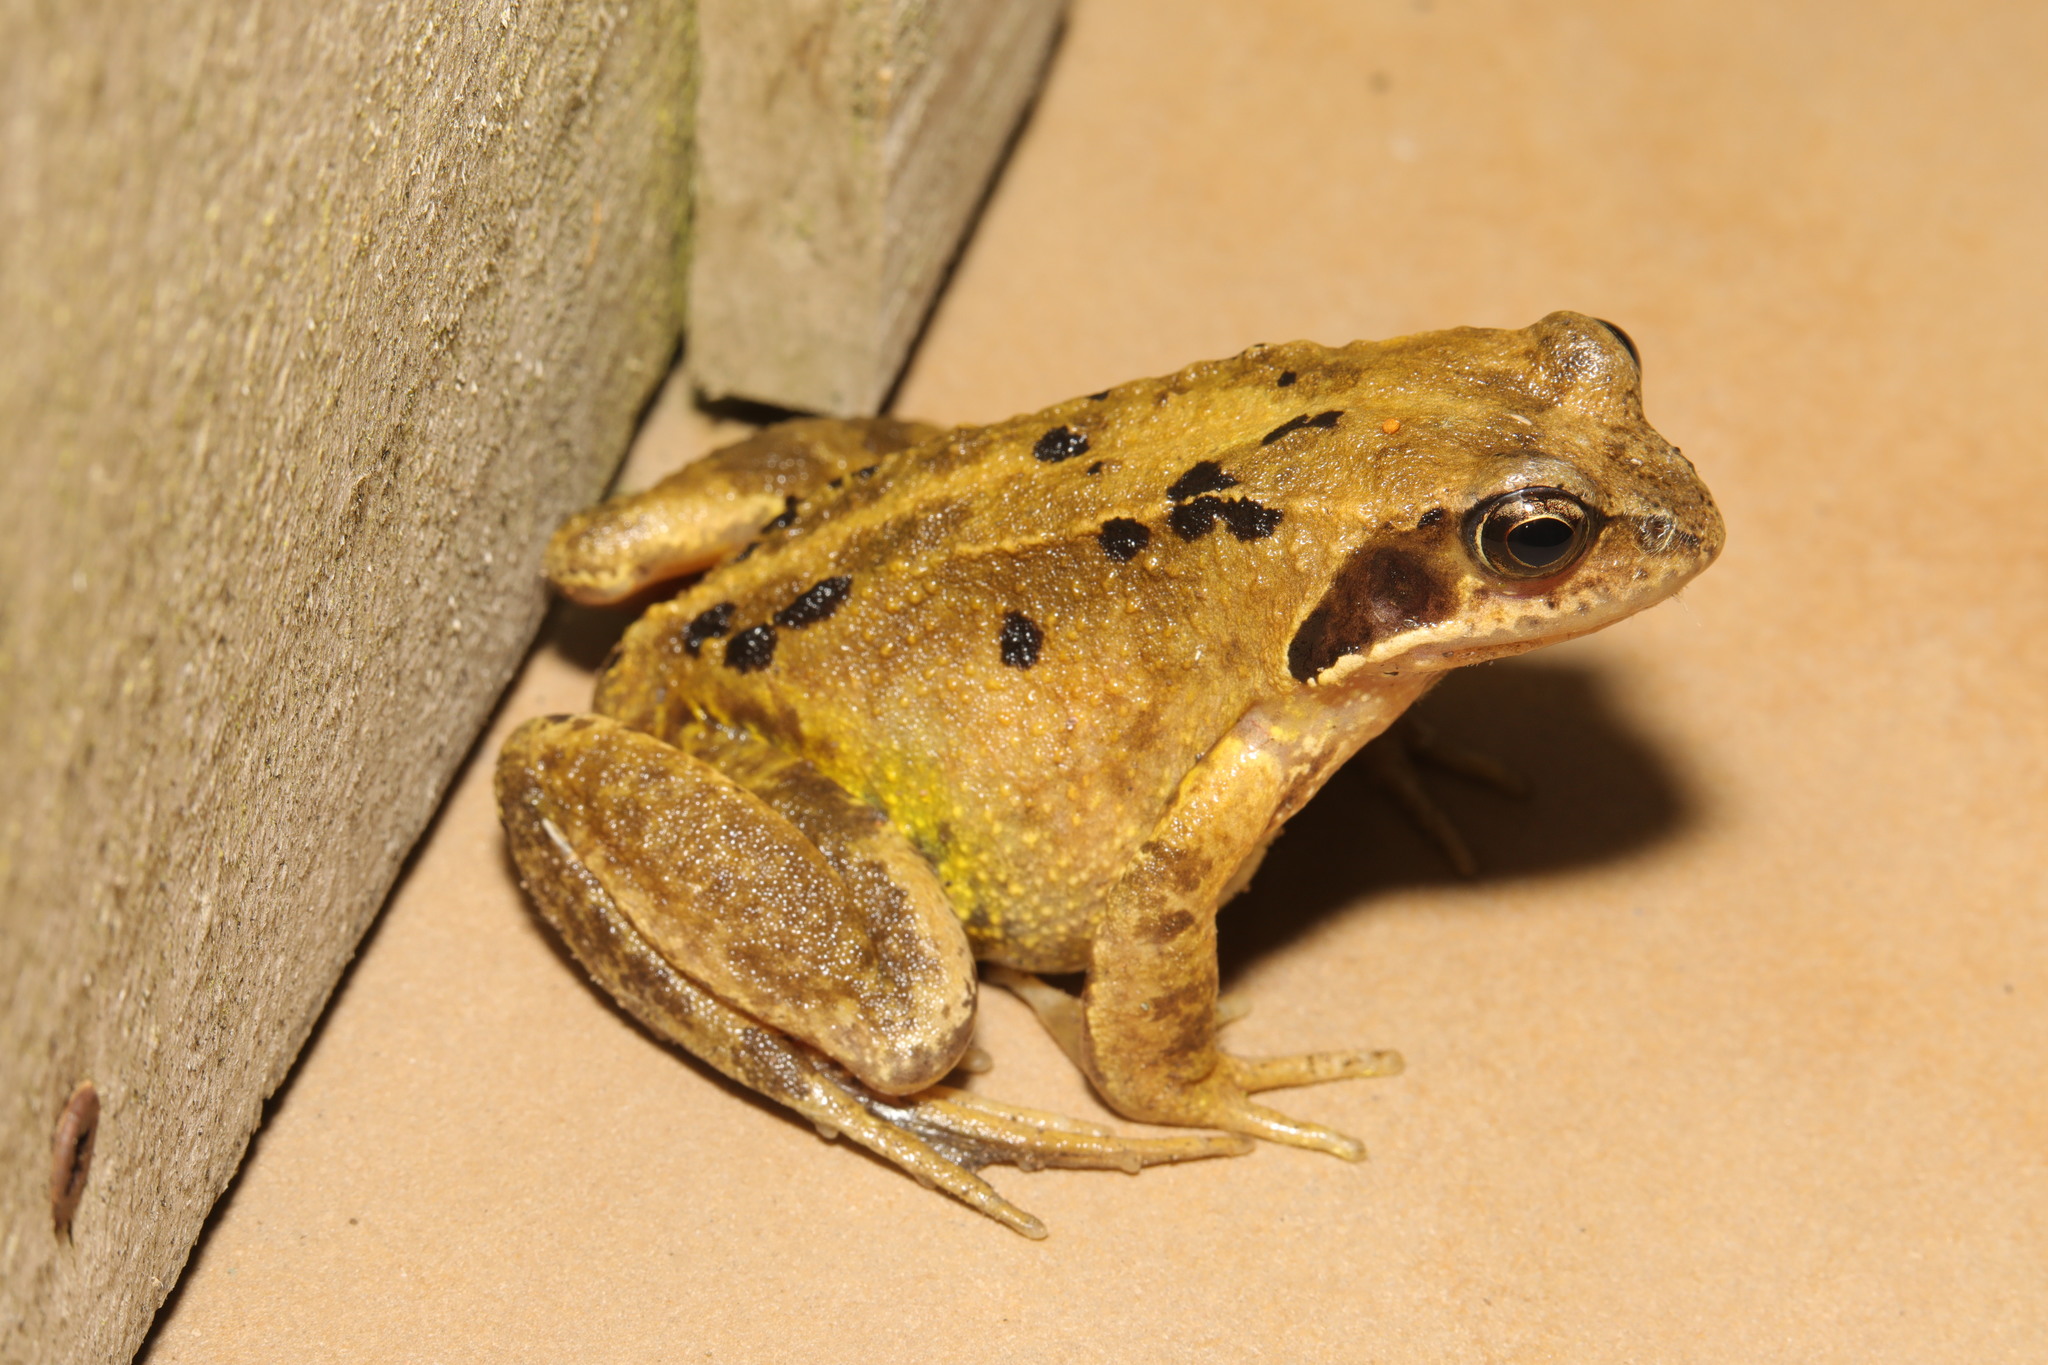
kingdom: Animalia
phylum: Chordata
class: Amphibia
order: Anura
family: Ranidae
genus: Rana
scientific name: Rana temporaria
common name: Common frog
